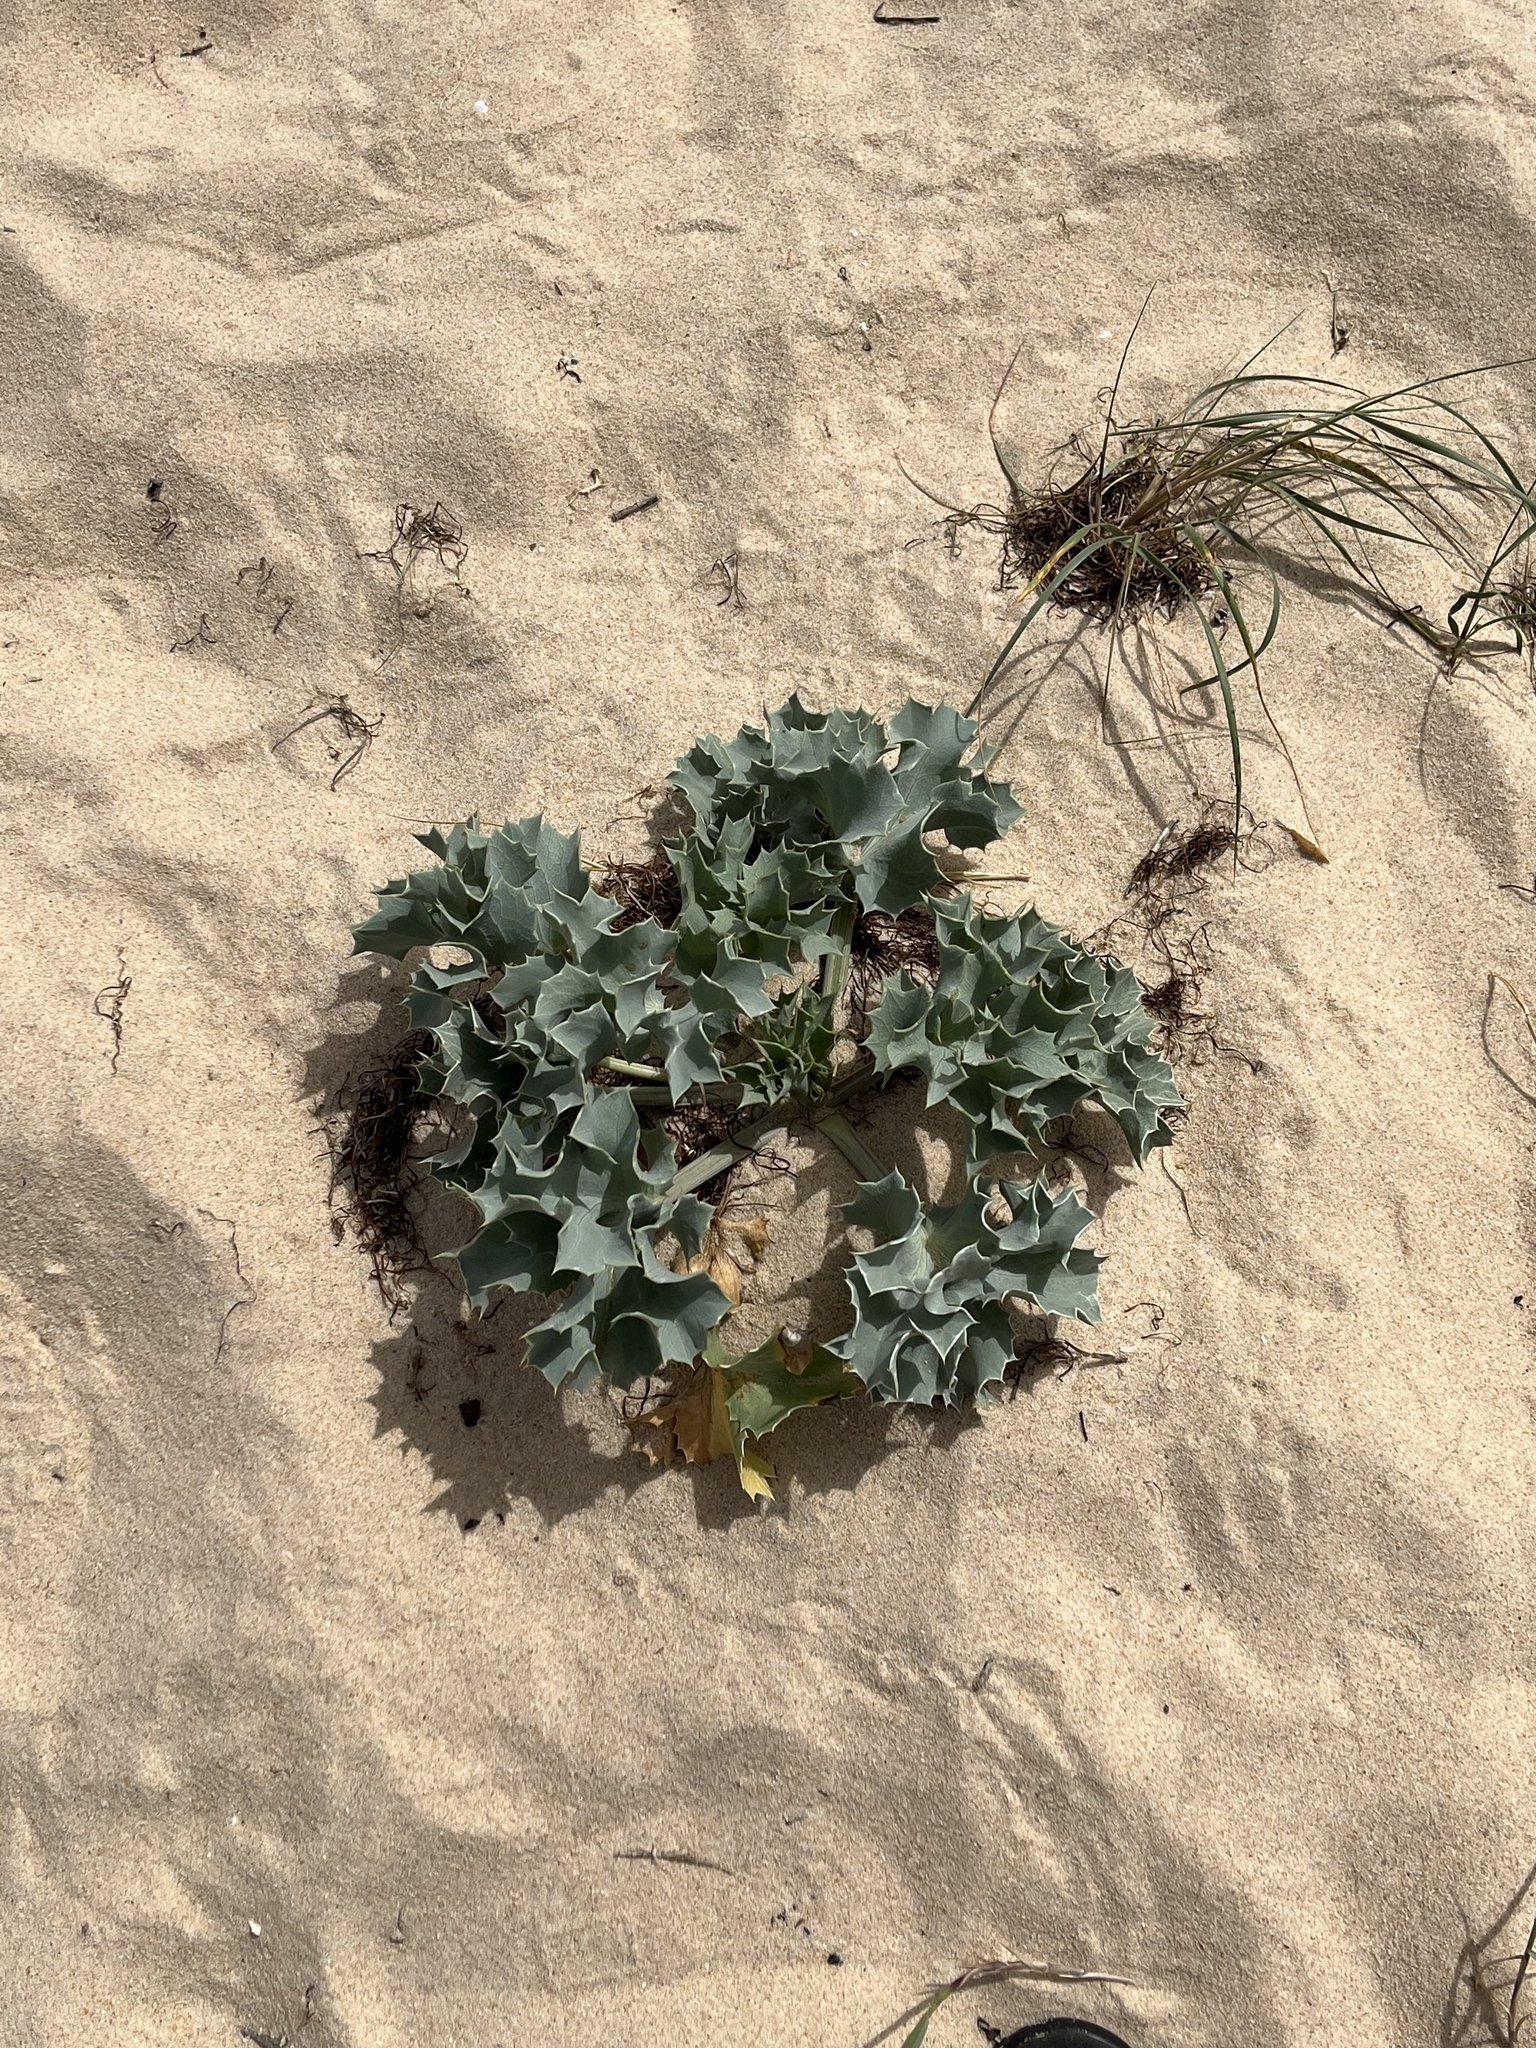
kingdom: Plantae
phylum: Tracheophyta
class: Magnoliopsida
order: Apiales
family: Apiaceae
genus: Eryngium
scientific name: Eryngium maritimum
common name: Sea-holly
